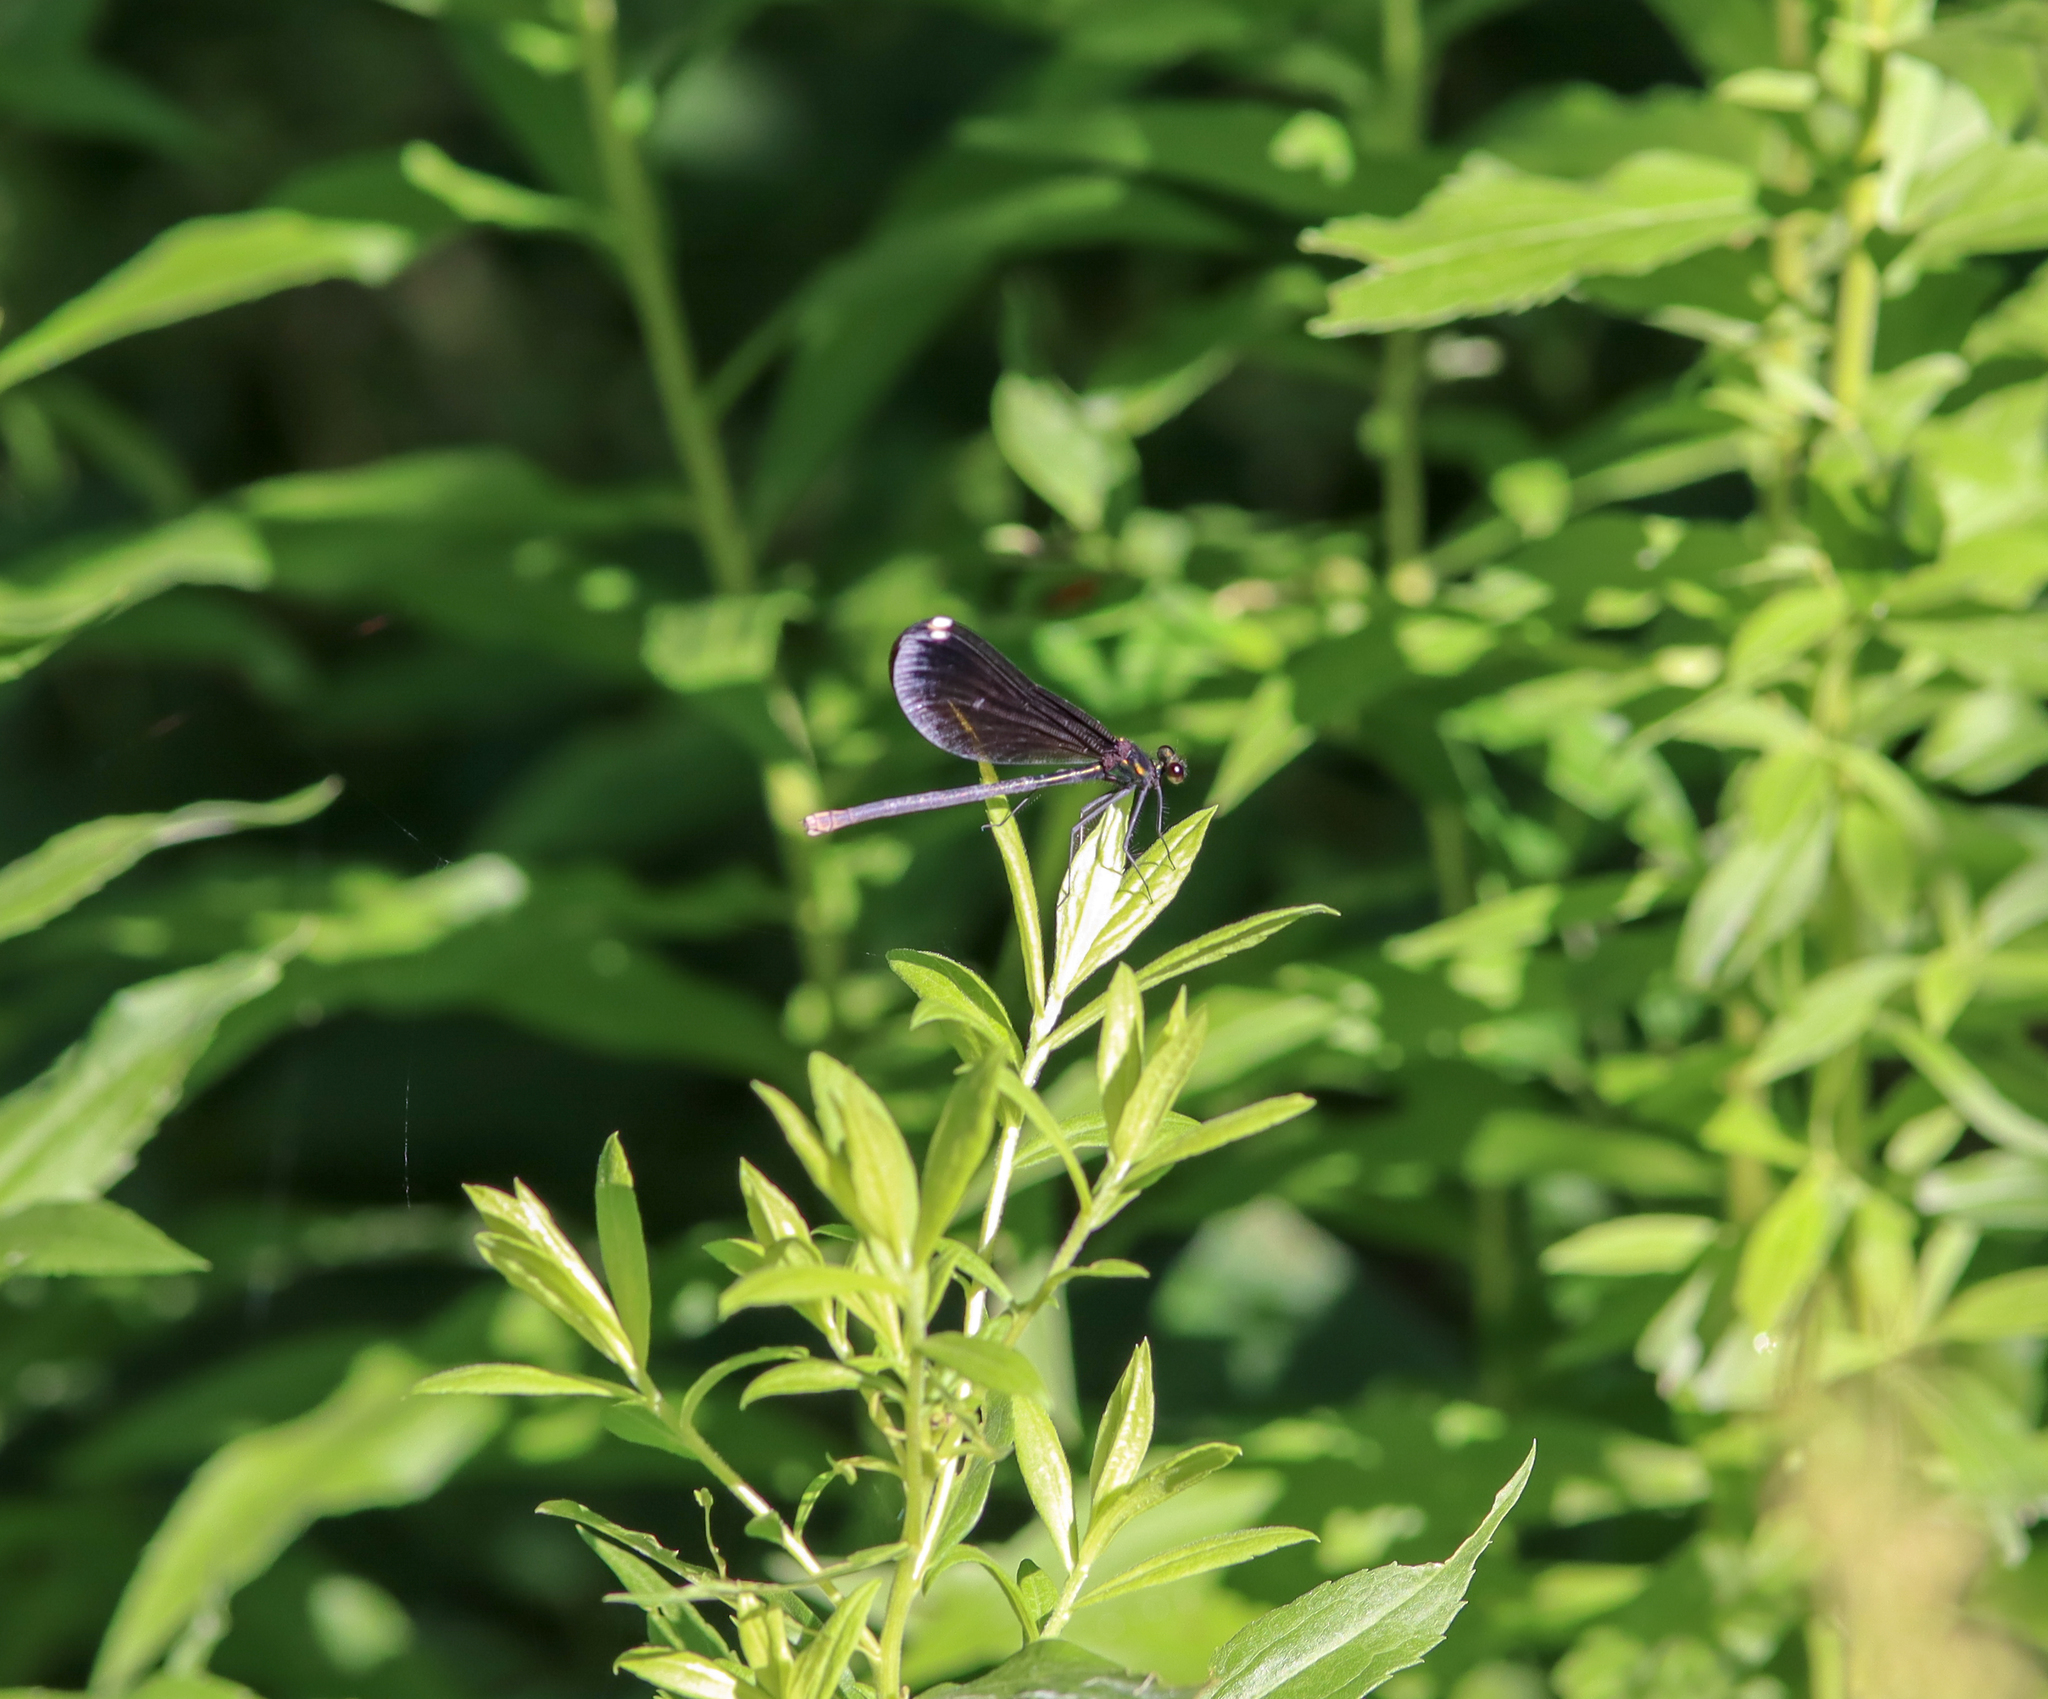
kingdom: Animalia
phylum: Arthropoda
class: Insecta
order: Odonata
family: Calopterygidae
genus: Calopteryx
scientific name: Calopteryx maculata
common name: Ebony jewelwing
